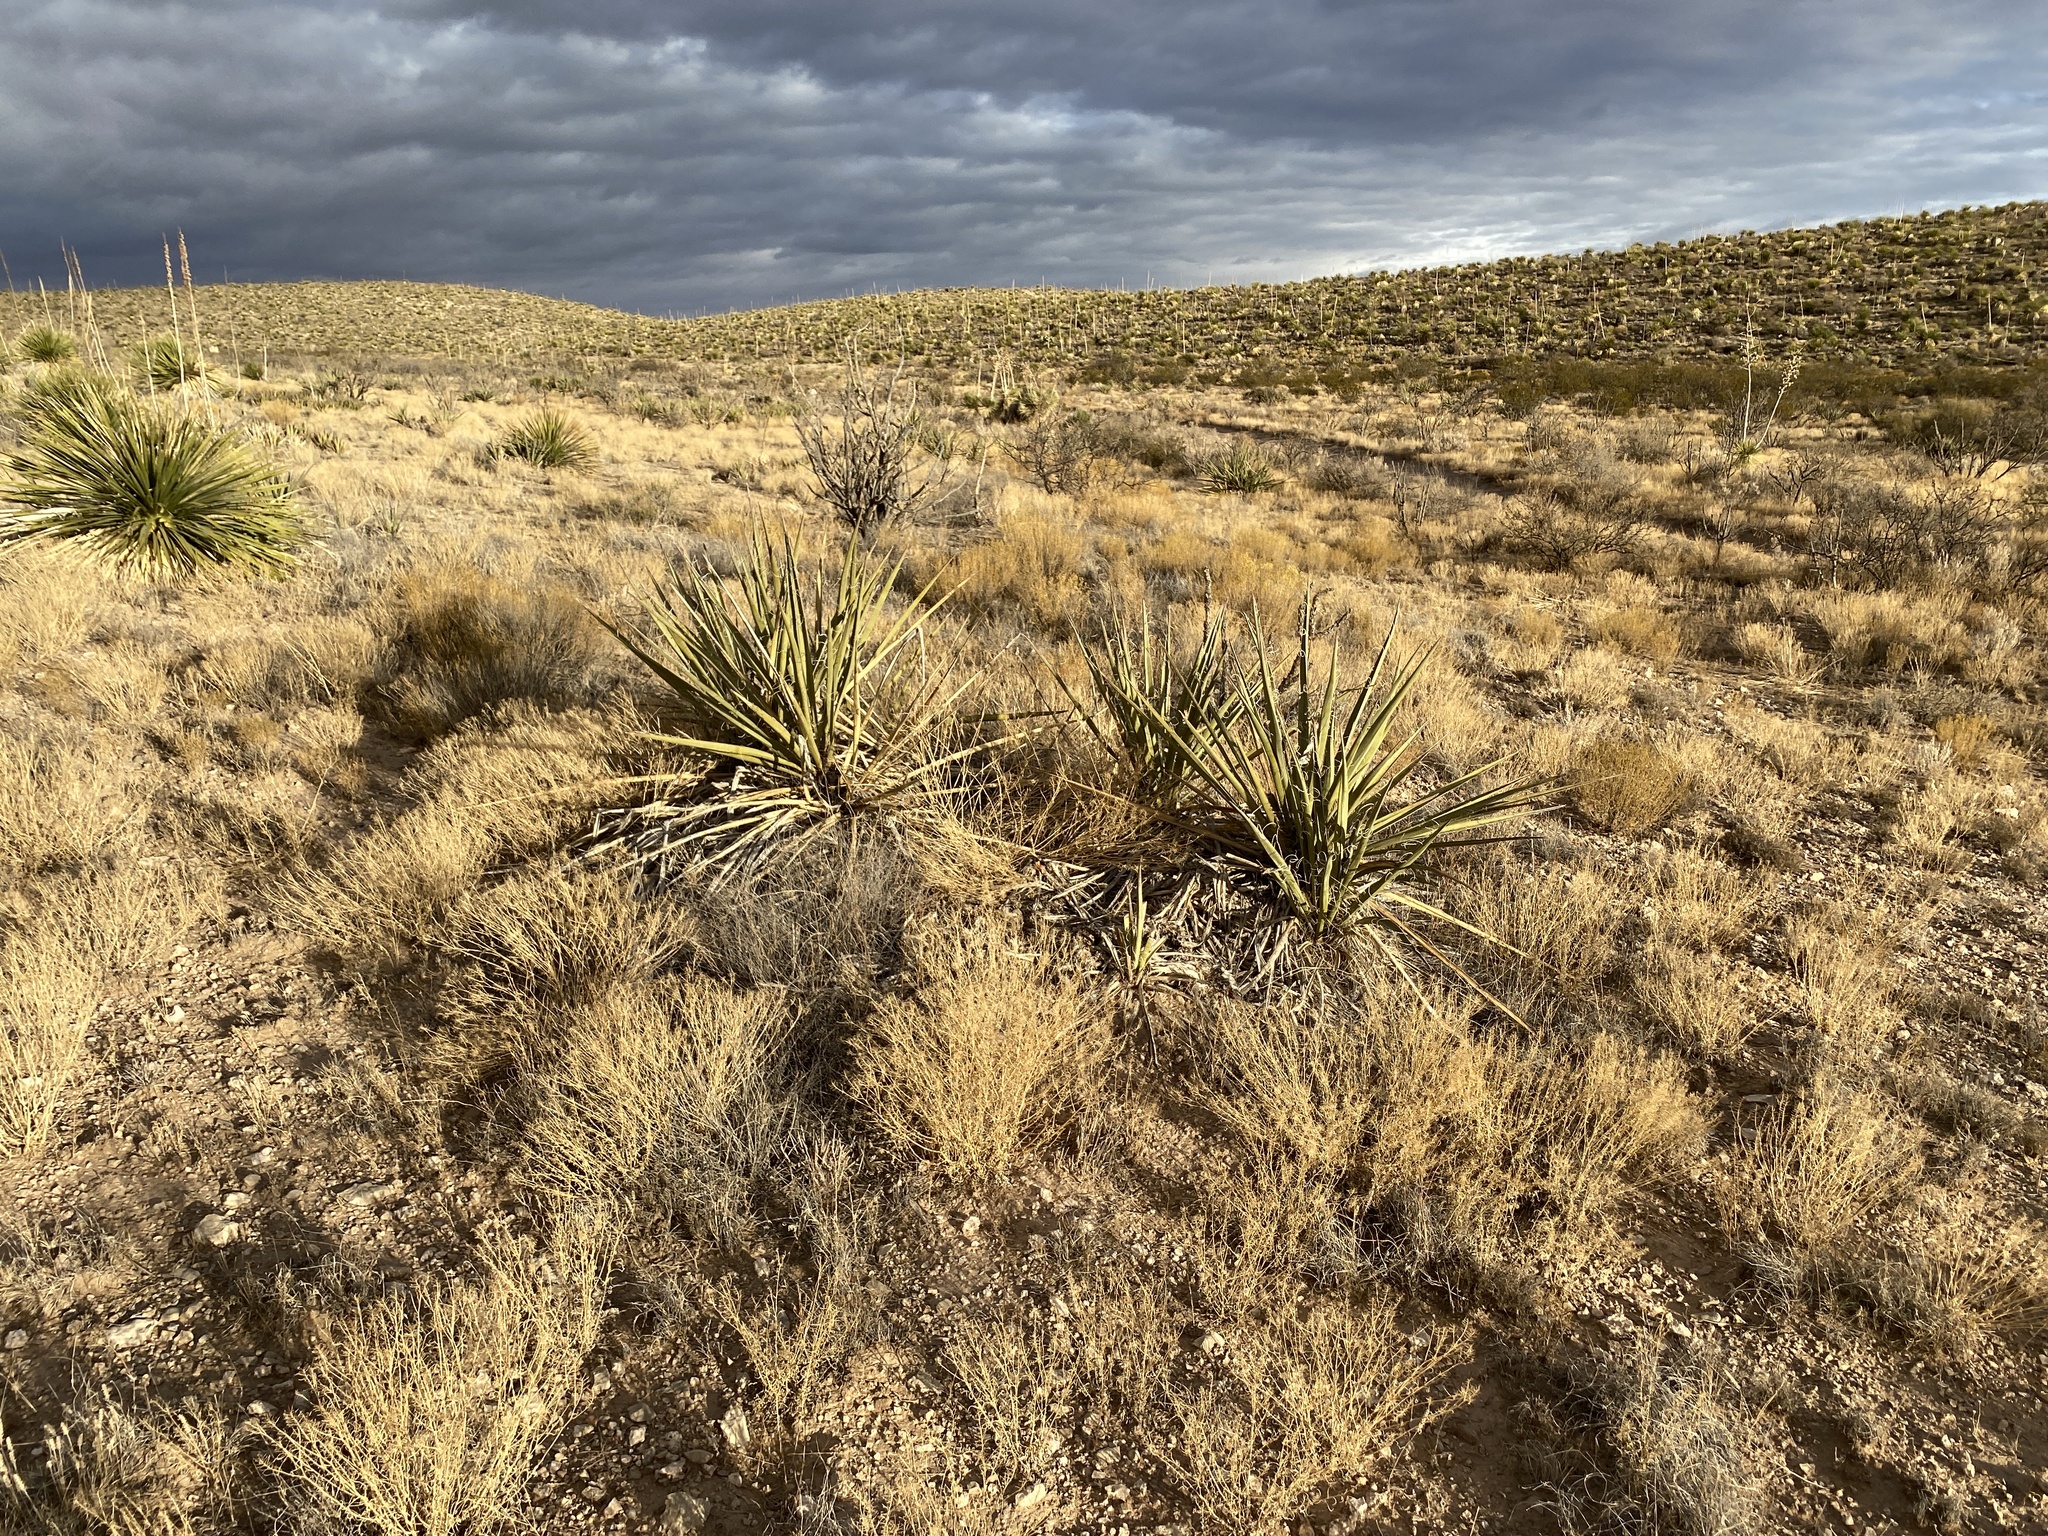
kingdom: Plantae
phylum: Tracheophyta
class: Liliopsida
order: Asparagales
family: Asparagaceae
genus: Yucca
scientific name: Yucca baccata
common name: Banana yucca
